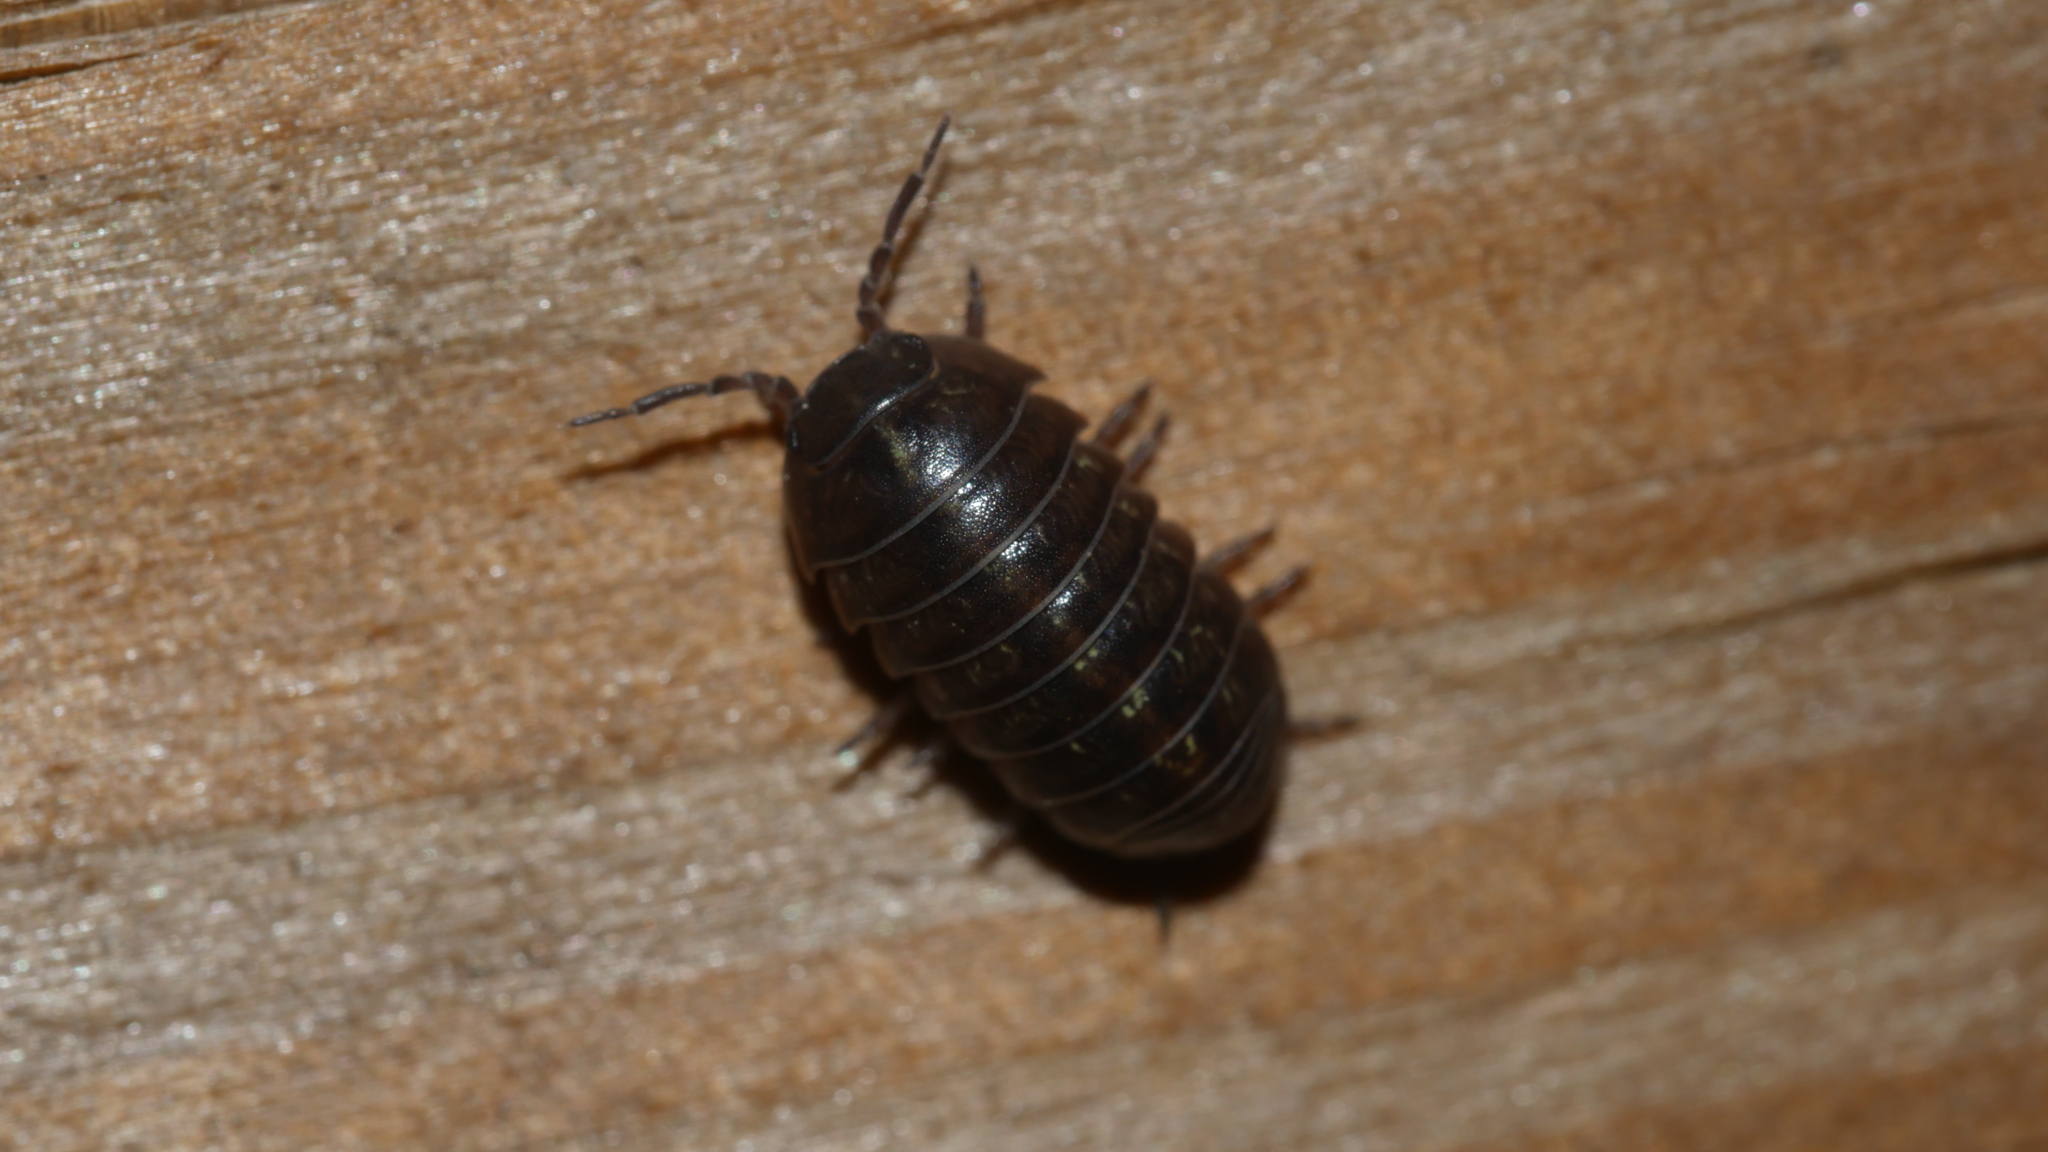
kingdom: Animalia
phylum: Arthropoda
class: Malacostraca
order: Isopoda
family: Armadillidiidae
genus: Armadillidium
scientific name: Armadillidium vulgare
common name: Common pill woodlouse
